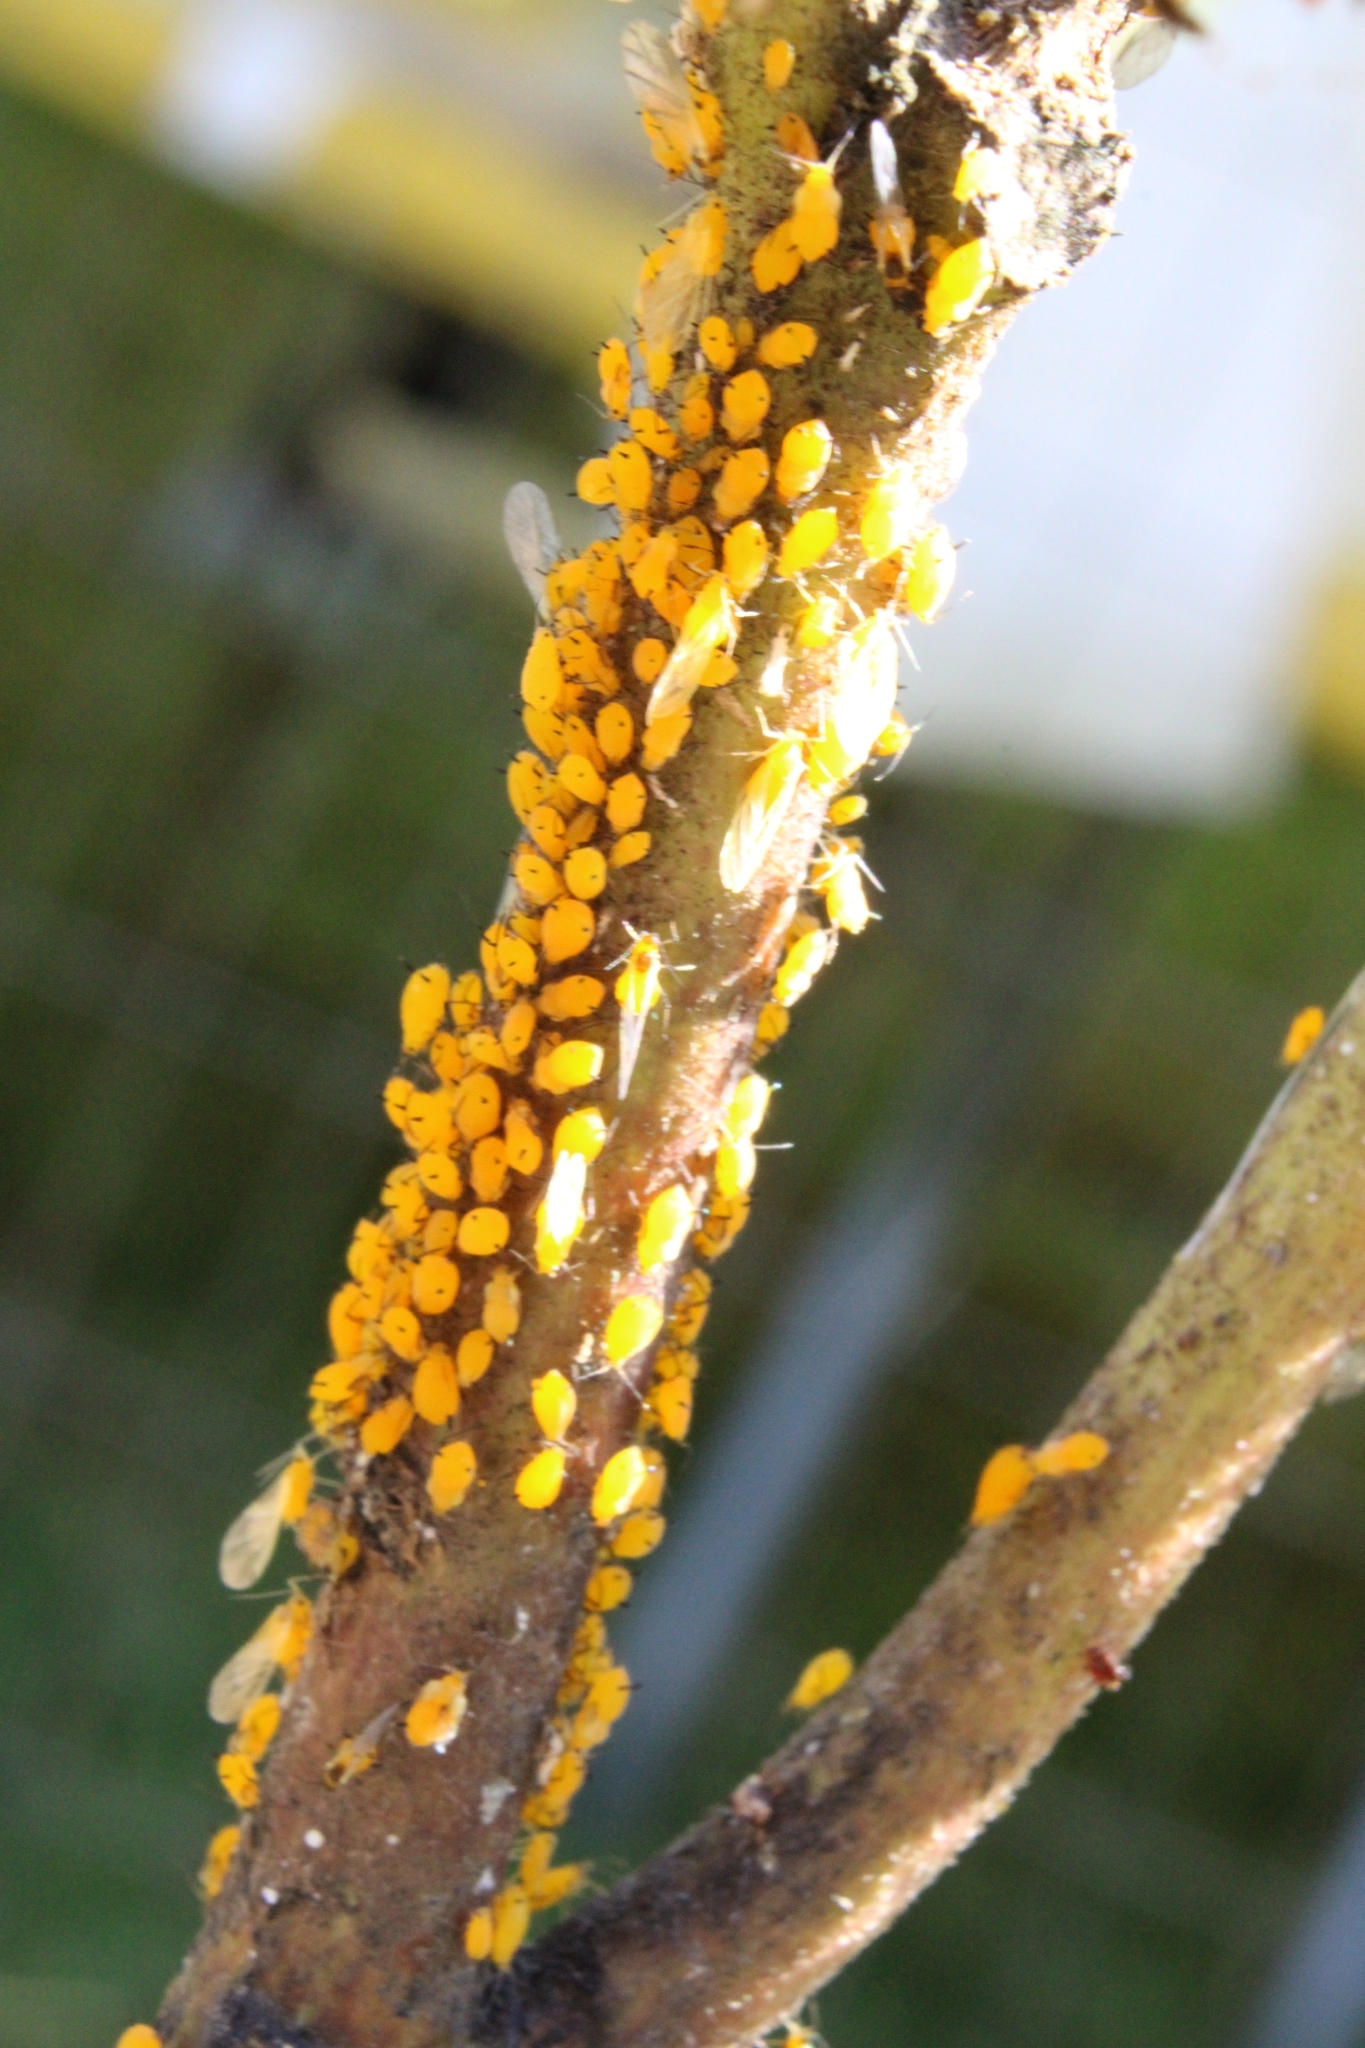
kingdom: Animalia
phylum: Arthropoda
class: Insecta
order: Hemiptera
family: Aphididae
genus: Aphis
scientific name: Aphis nerii
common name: Oleander aphid
